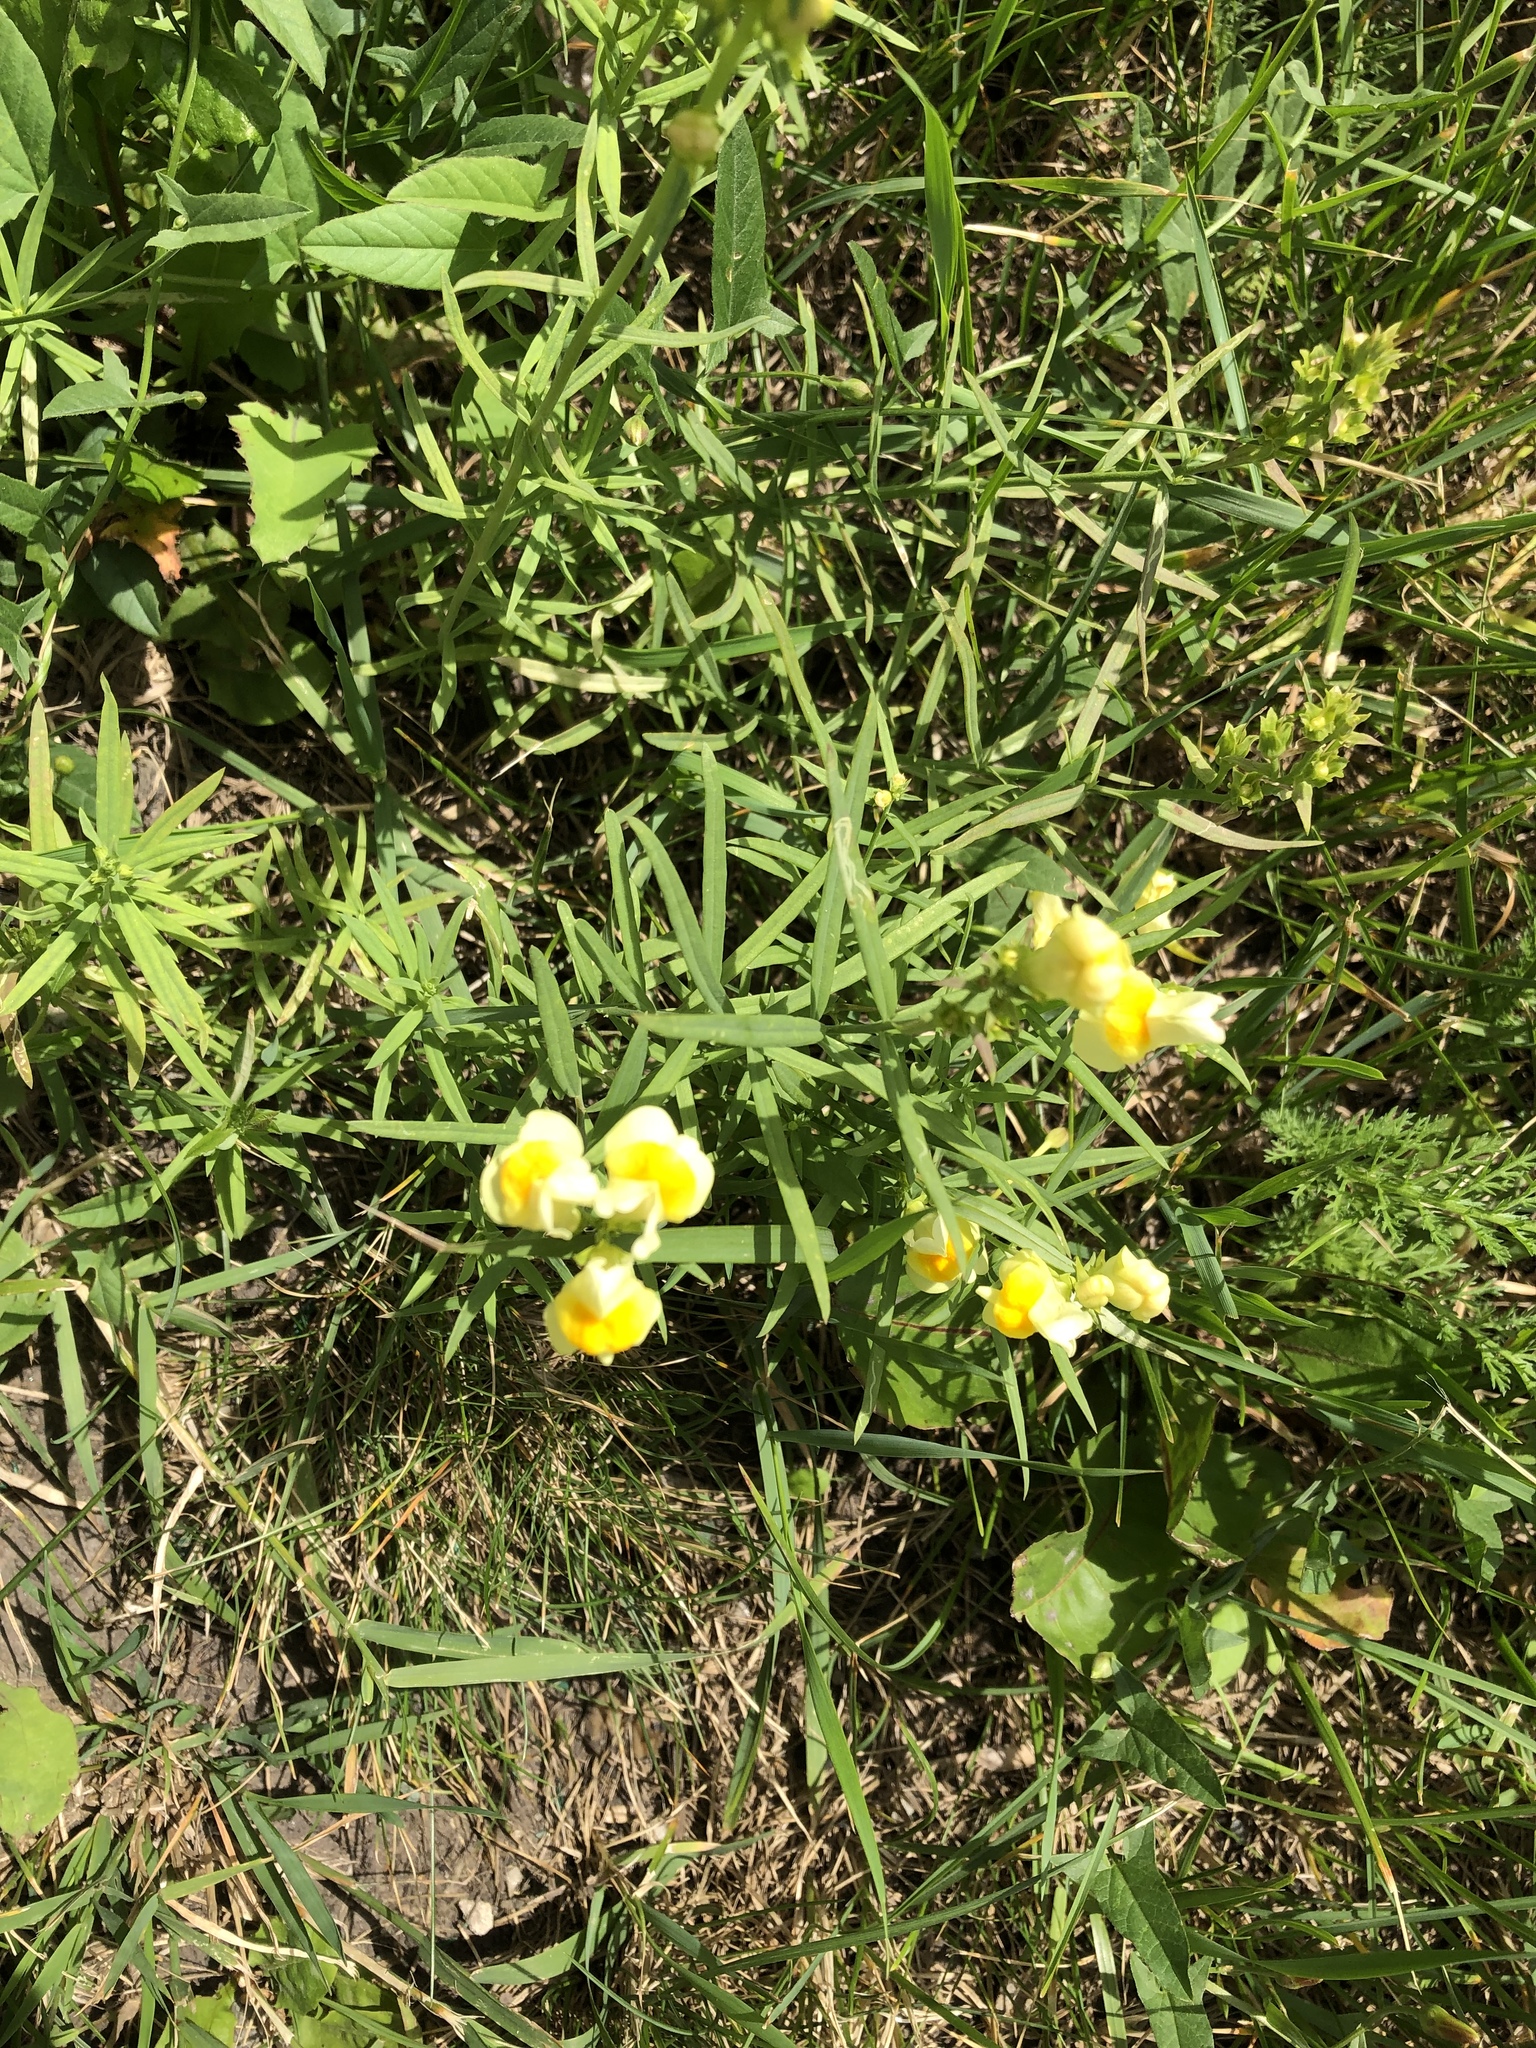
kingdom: Plantae
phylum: Tracheophyta
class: Magnoliopsida
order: Lamiales
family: Plantaginaceae
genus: Linaria
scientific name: Linaria vulgaris
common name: Butter and eggs
